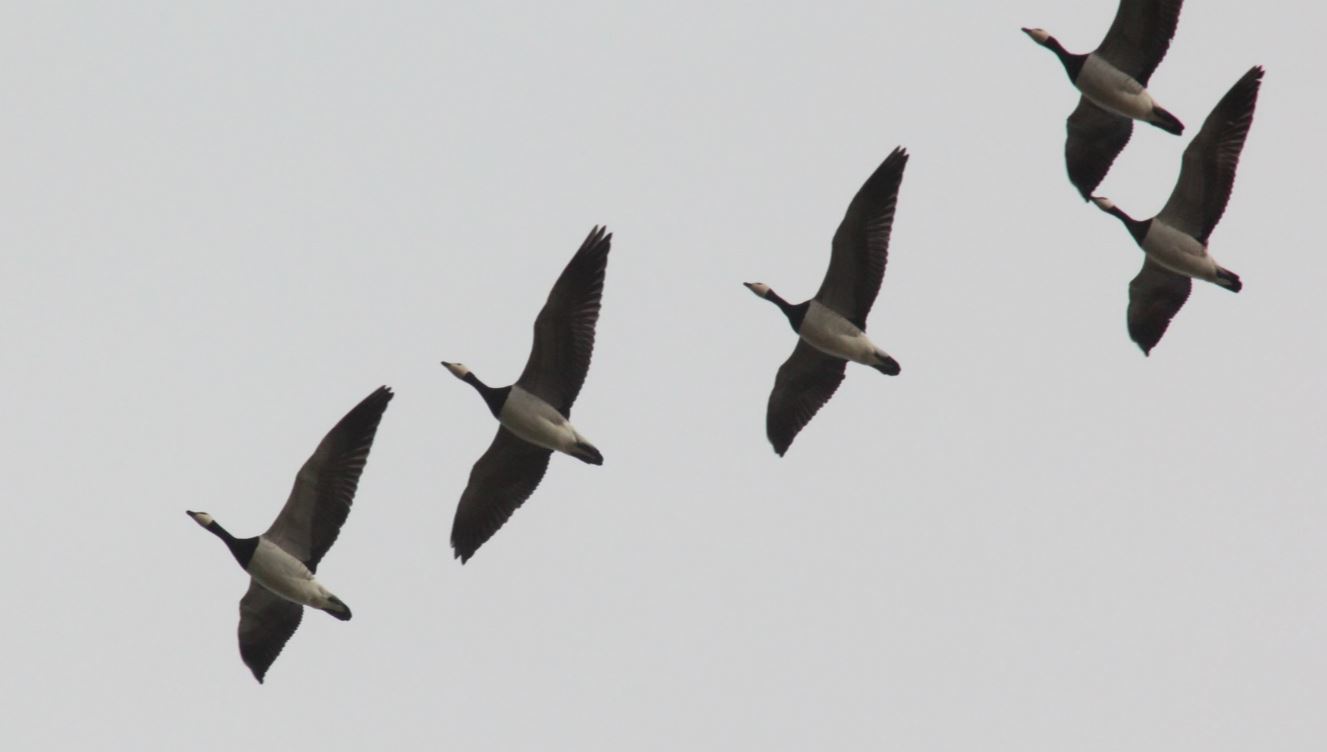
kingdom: Animalia
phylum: Chordata
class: Aves
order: Anseriformes
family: Anatidae
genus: Branta
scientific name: Branta leucopsis
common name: Barnacle goose
